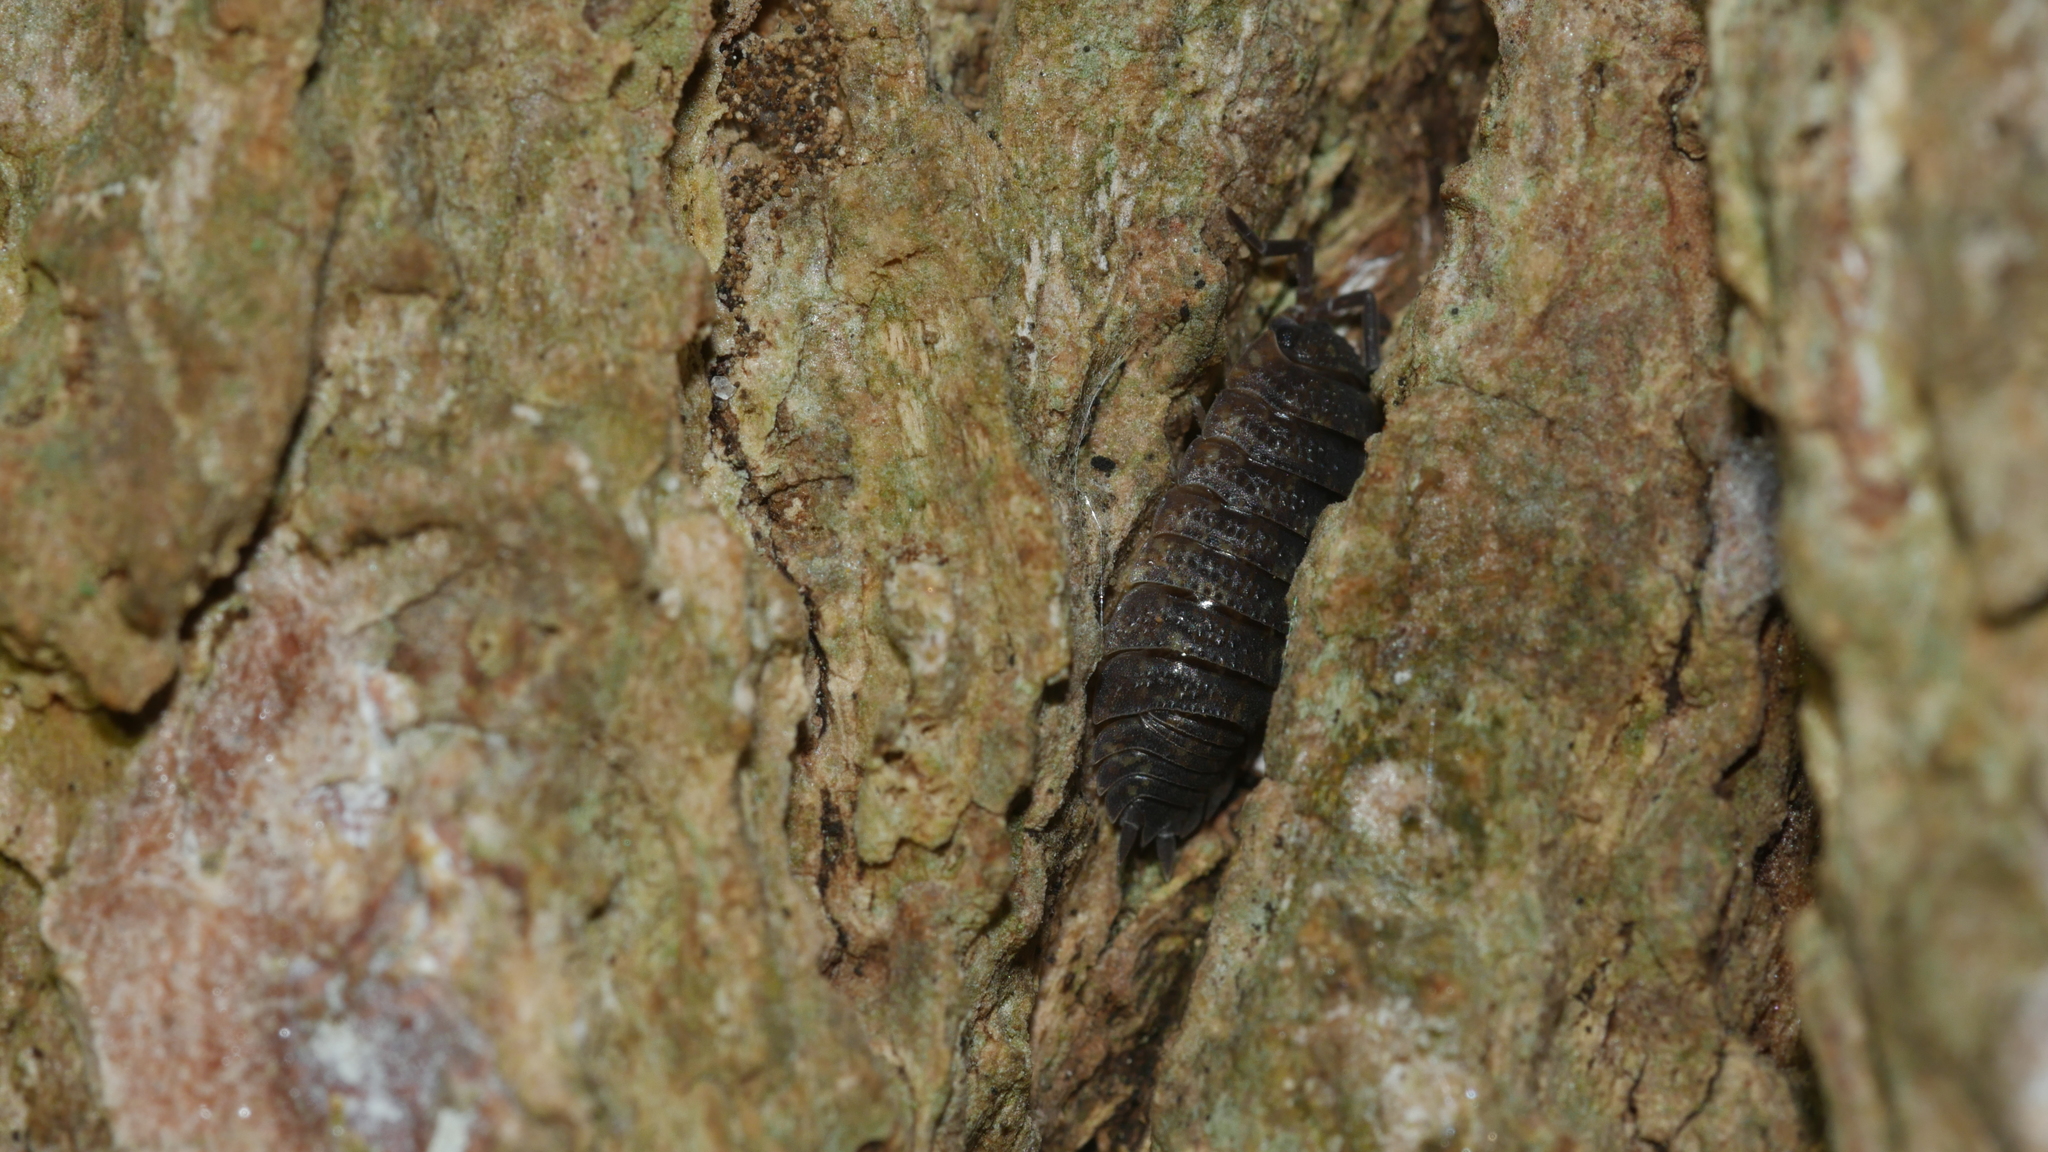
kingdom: Animalia
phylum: Arthropoda
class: Malacostraca
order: Isopoda
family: Porcellionidae
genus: Porcellio
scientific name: Porcellio scaber
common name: Common rough woodlouse
